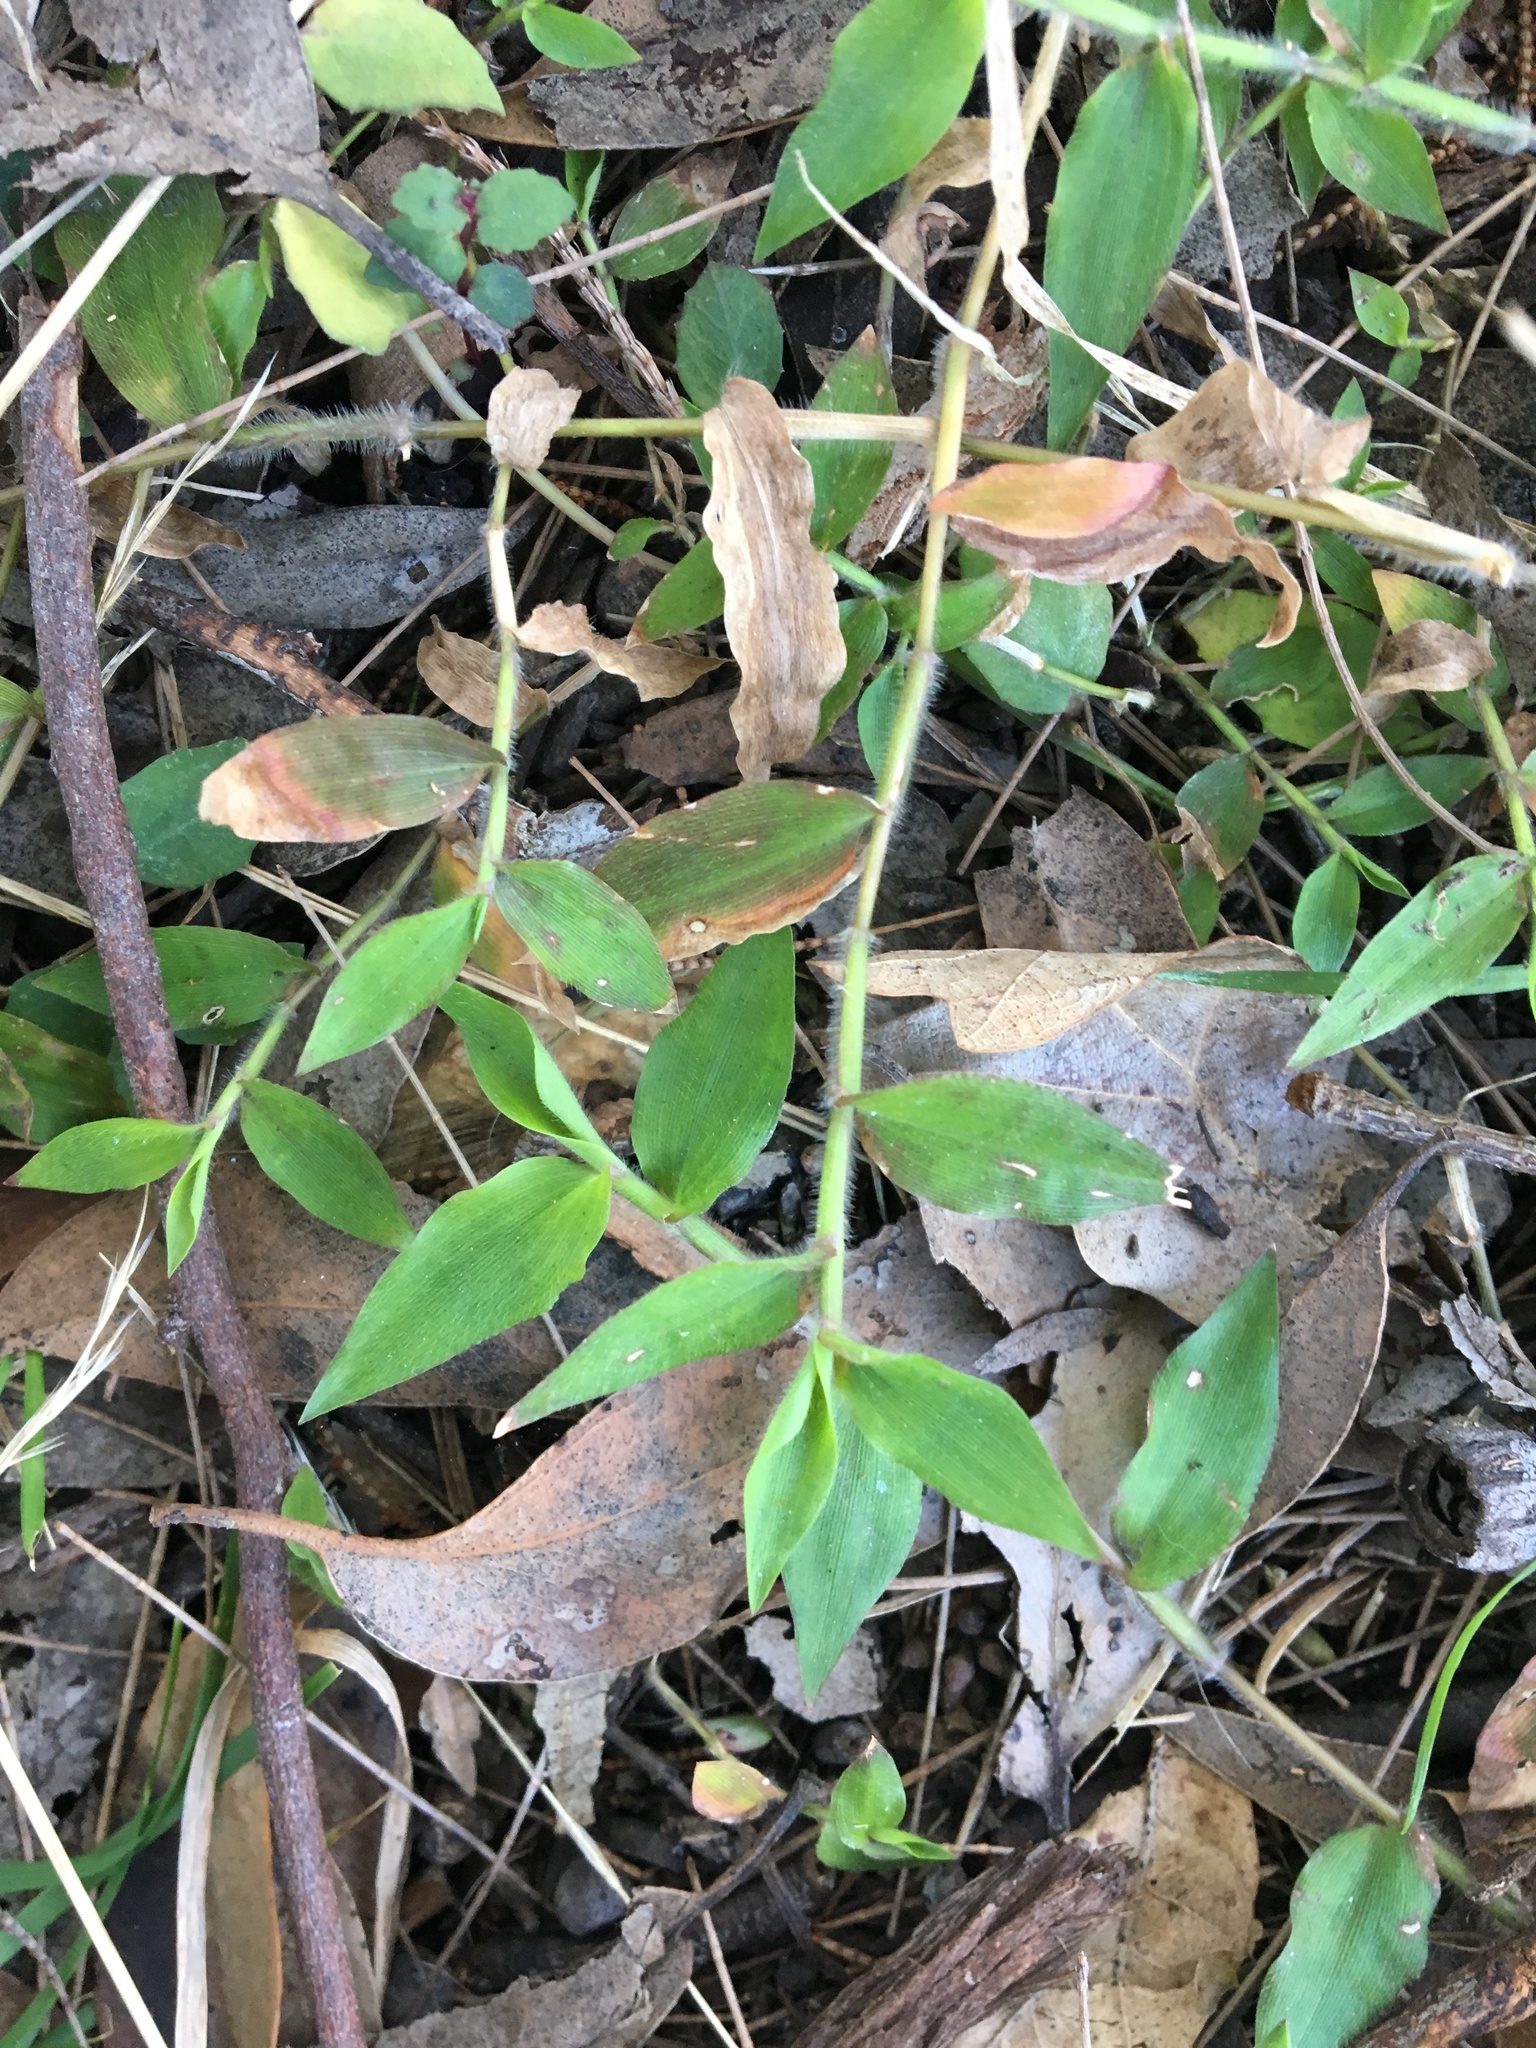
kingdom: Plantae
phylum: Tracheophyta
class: Liliopsida
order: Poales
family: Poaceae
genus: Oplismenus
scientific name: Oplismenus hirtellus
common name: Basketgrass
